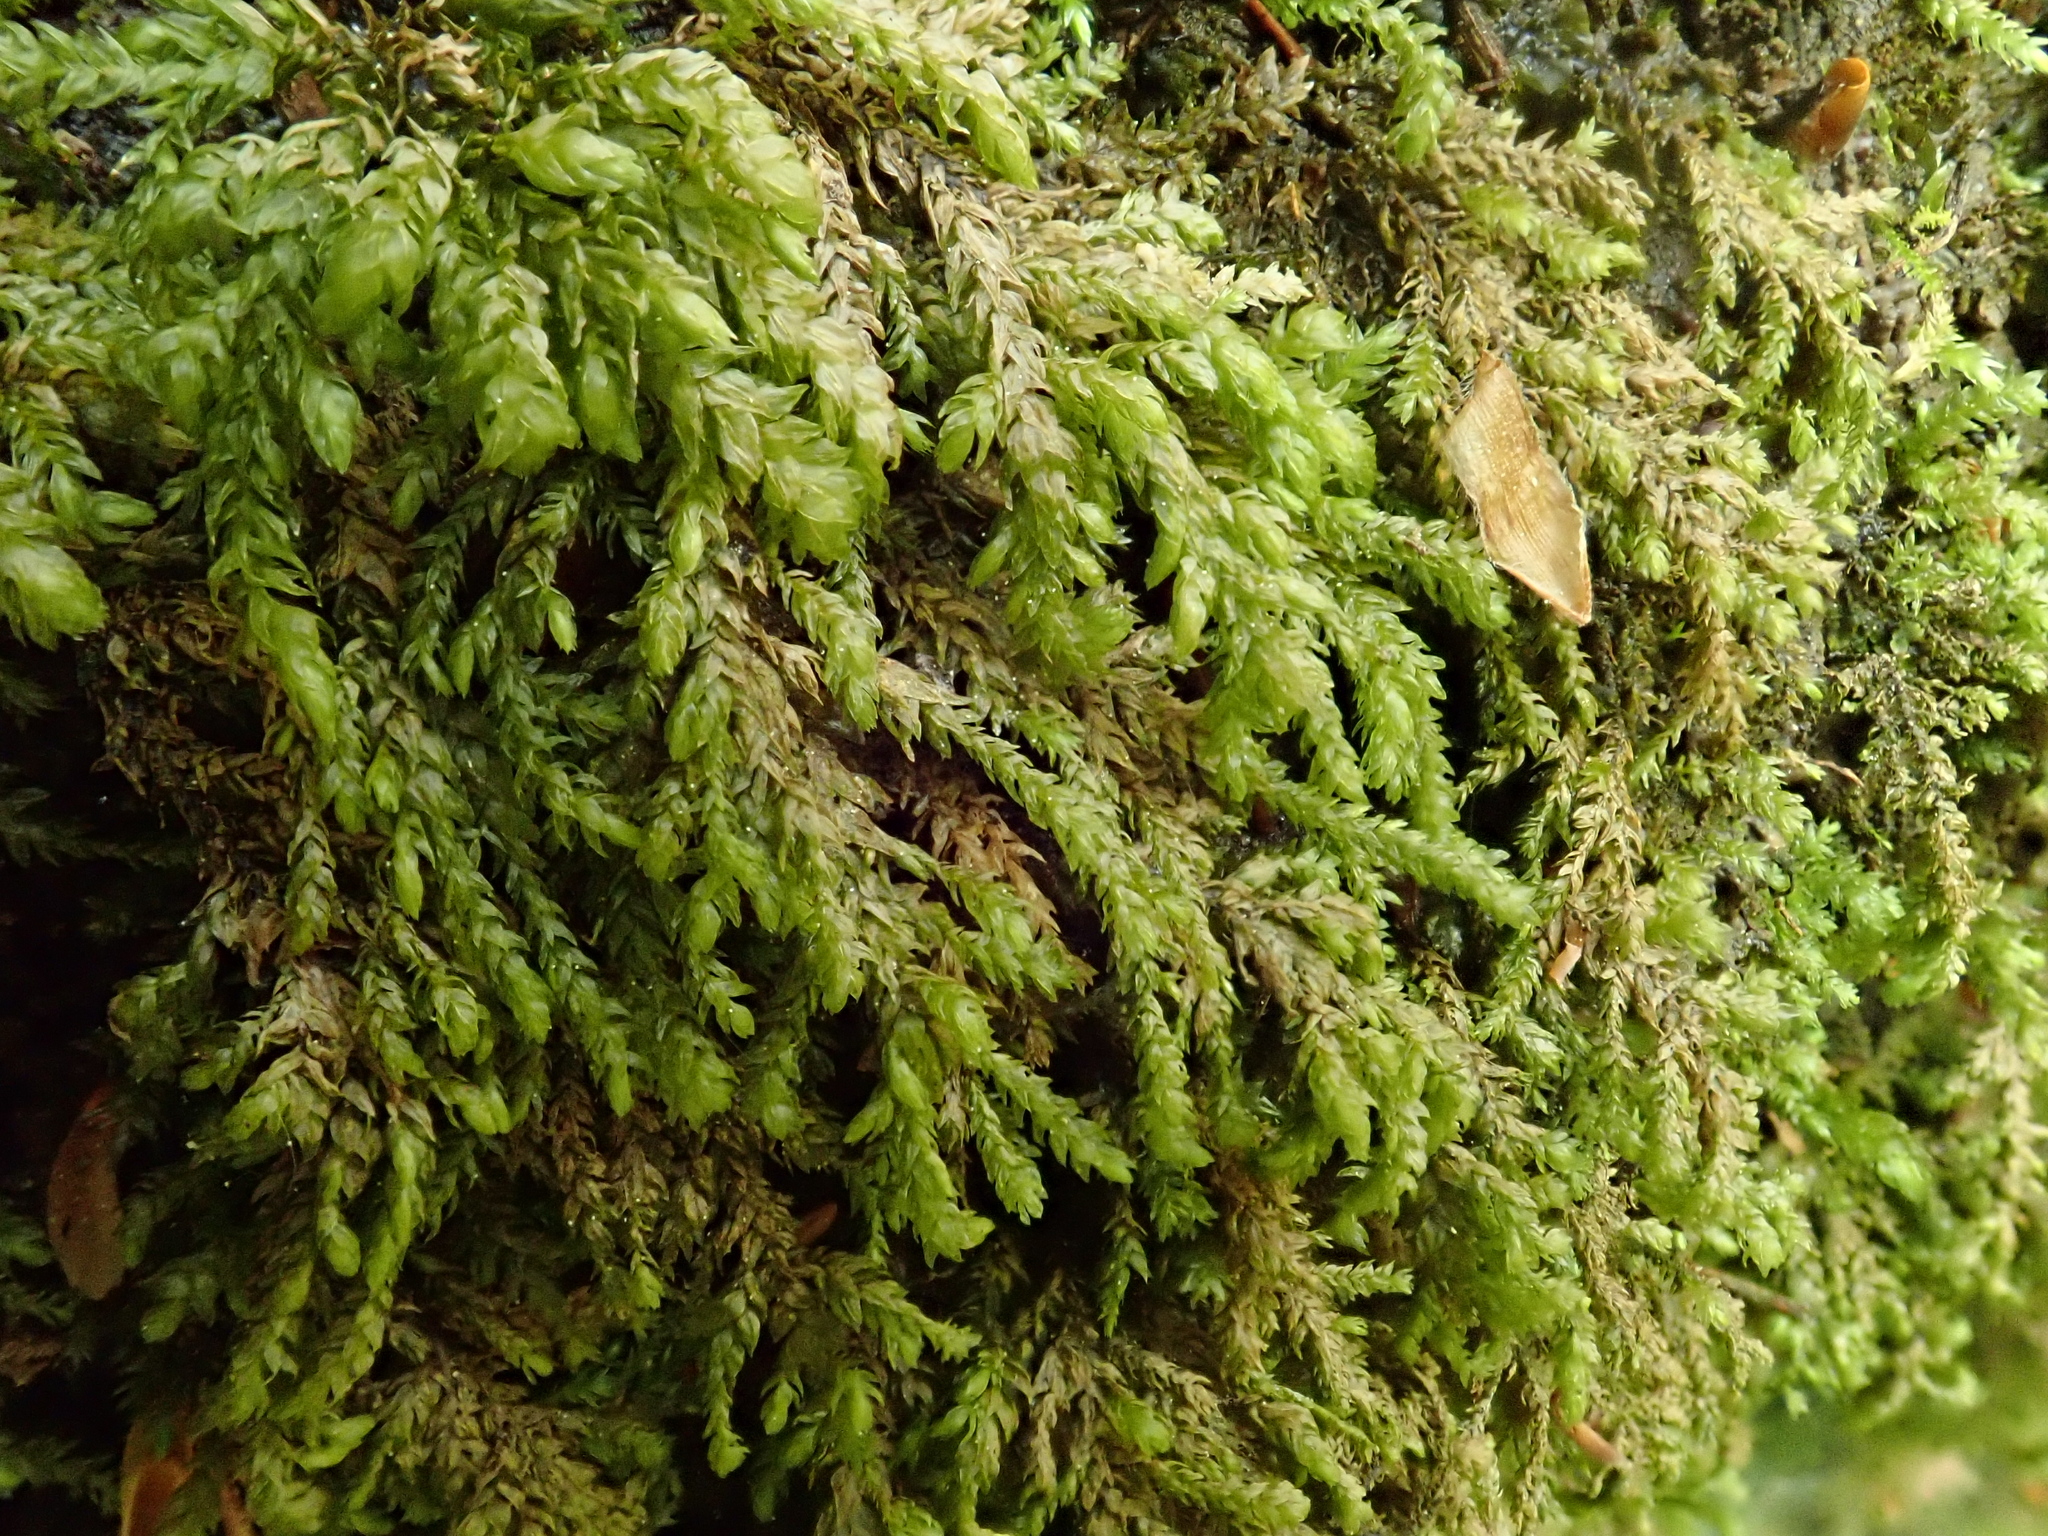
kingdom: Plantae
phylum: Bryophyta
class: Bryopsida
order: Hypnales
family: Neckeraceae
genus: Pseudanomodon
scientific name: Pseudanomodon attenuatus
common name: Tree-skirt moss
